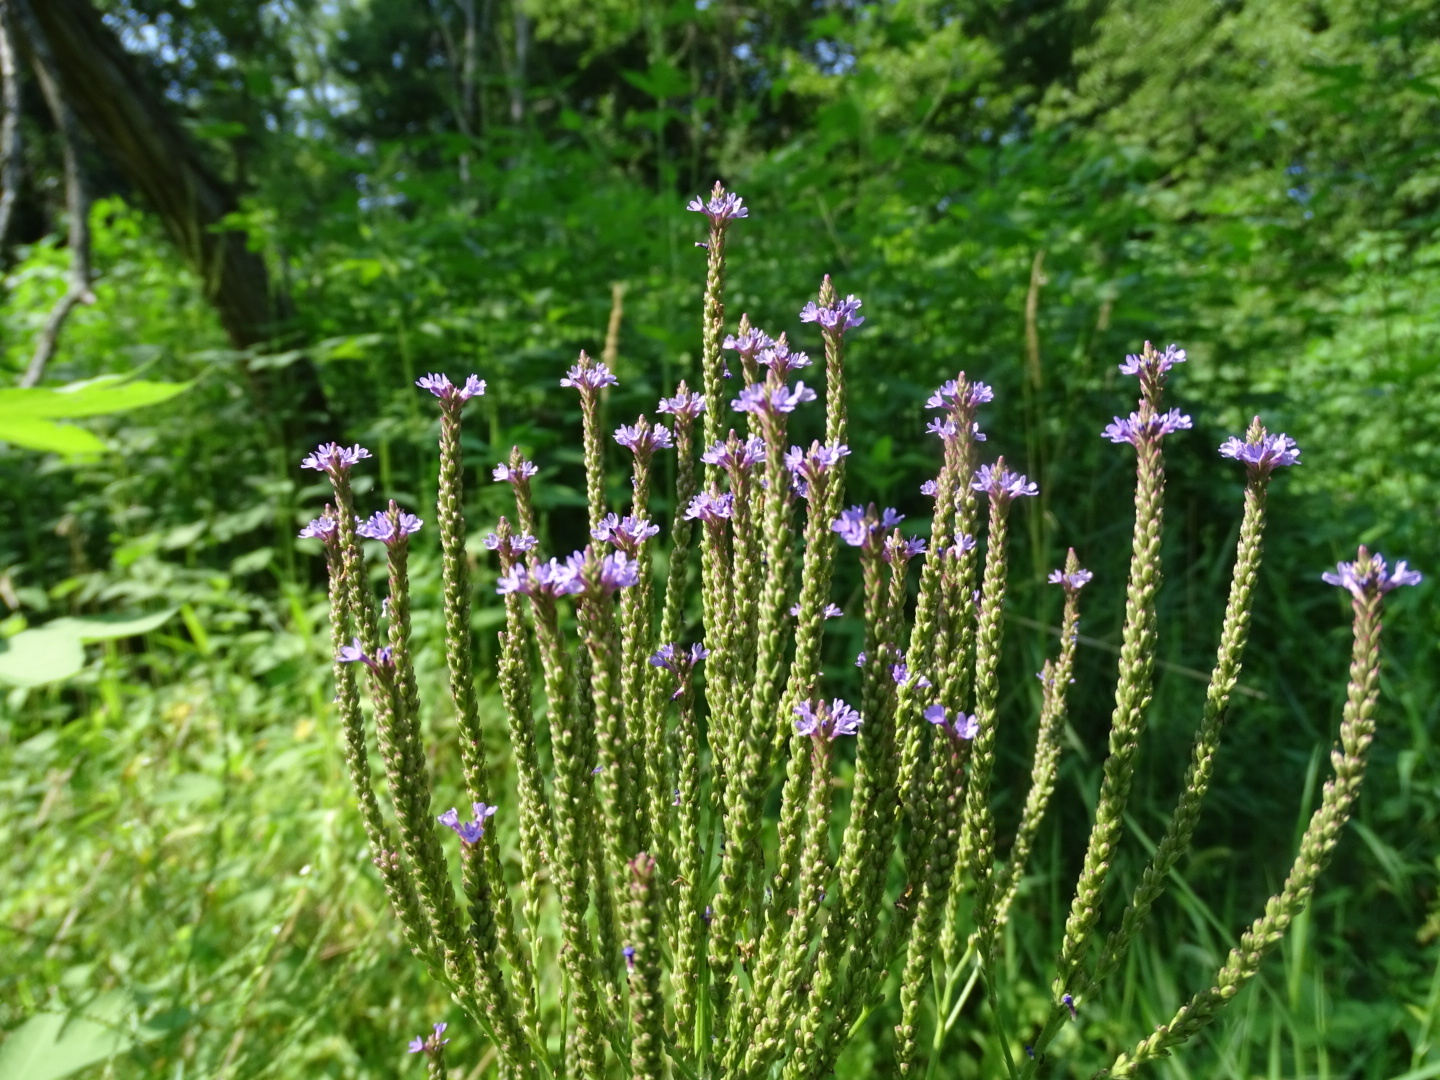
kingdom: Plantae
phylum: Tracheophyta
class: Magnoliopsida
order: Lamiales
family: Verbenaceae
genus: Verbena
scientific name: Verbena hastata
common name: American blue vervain
